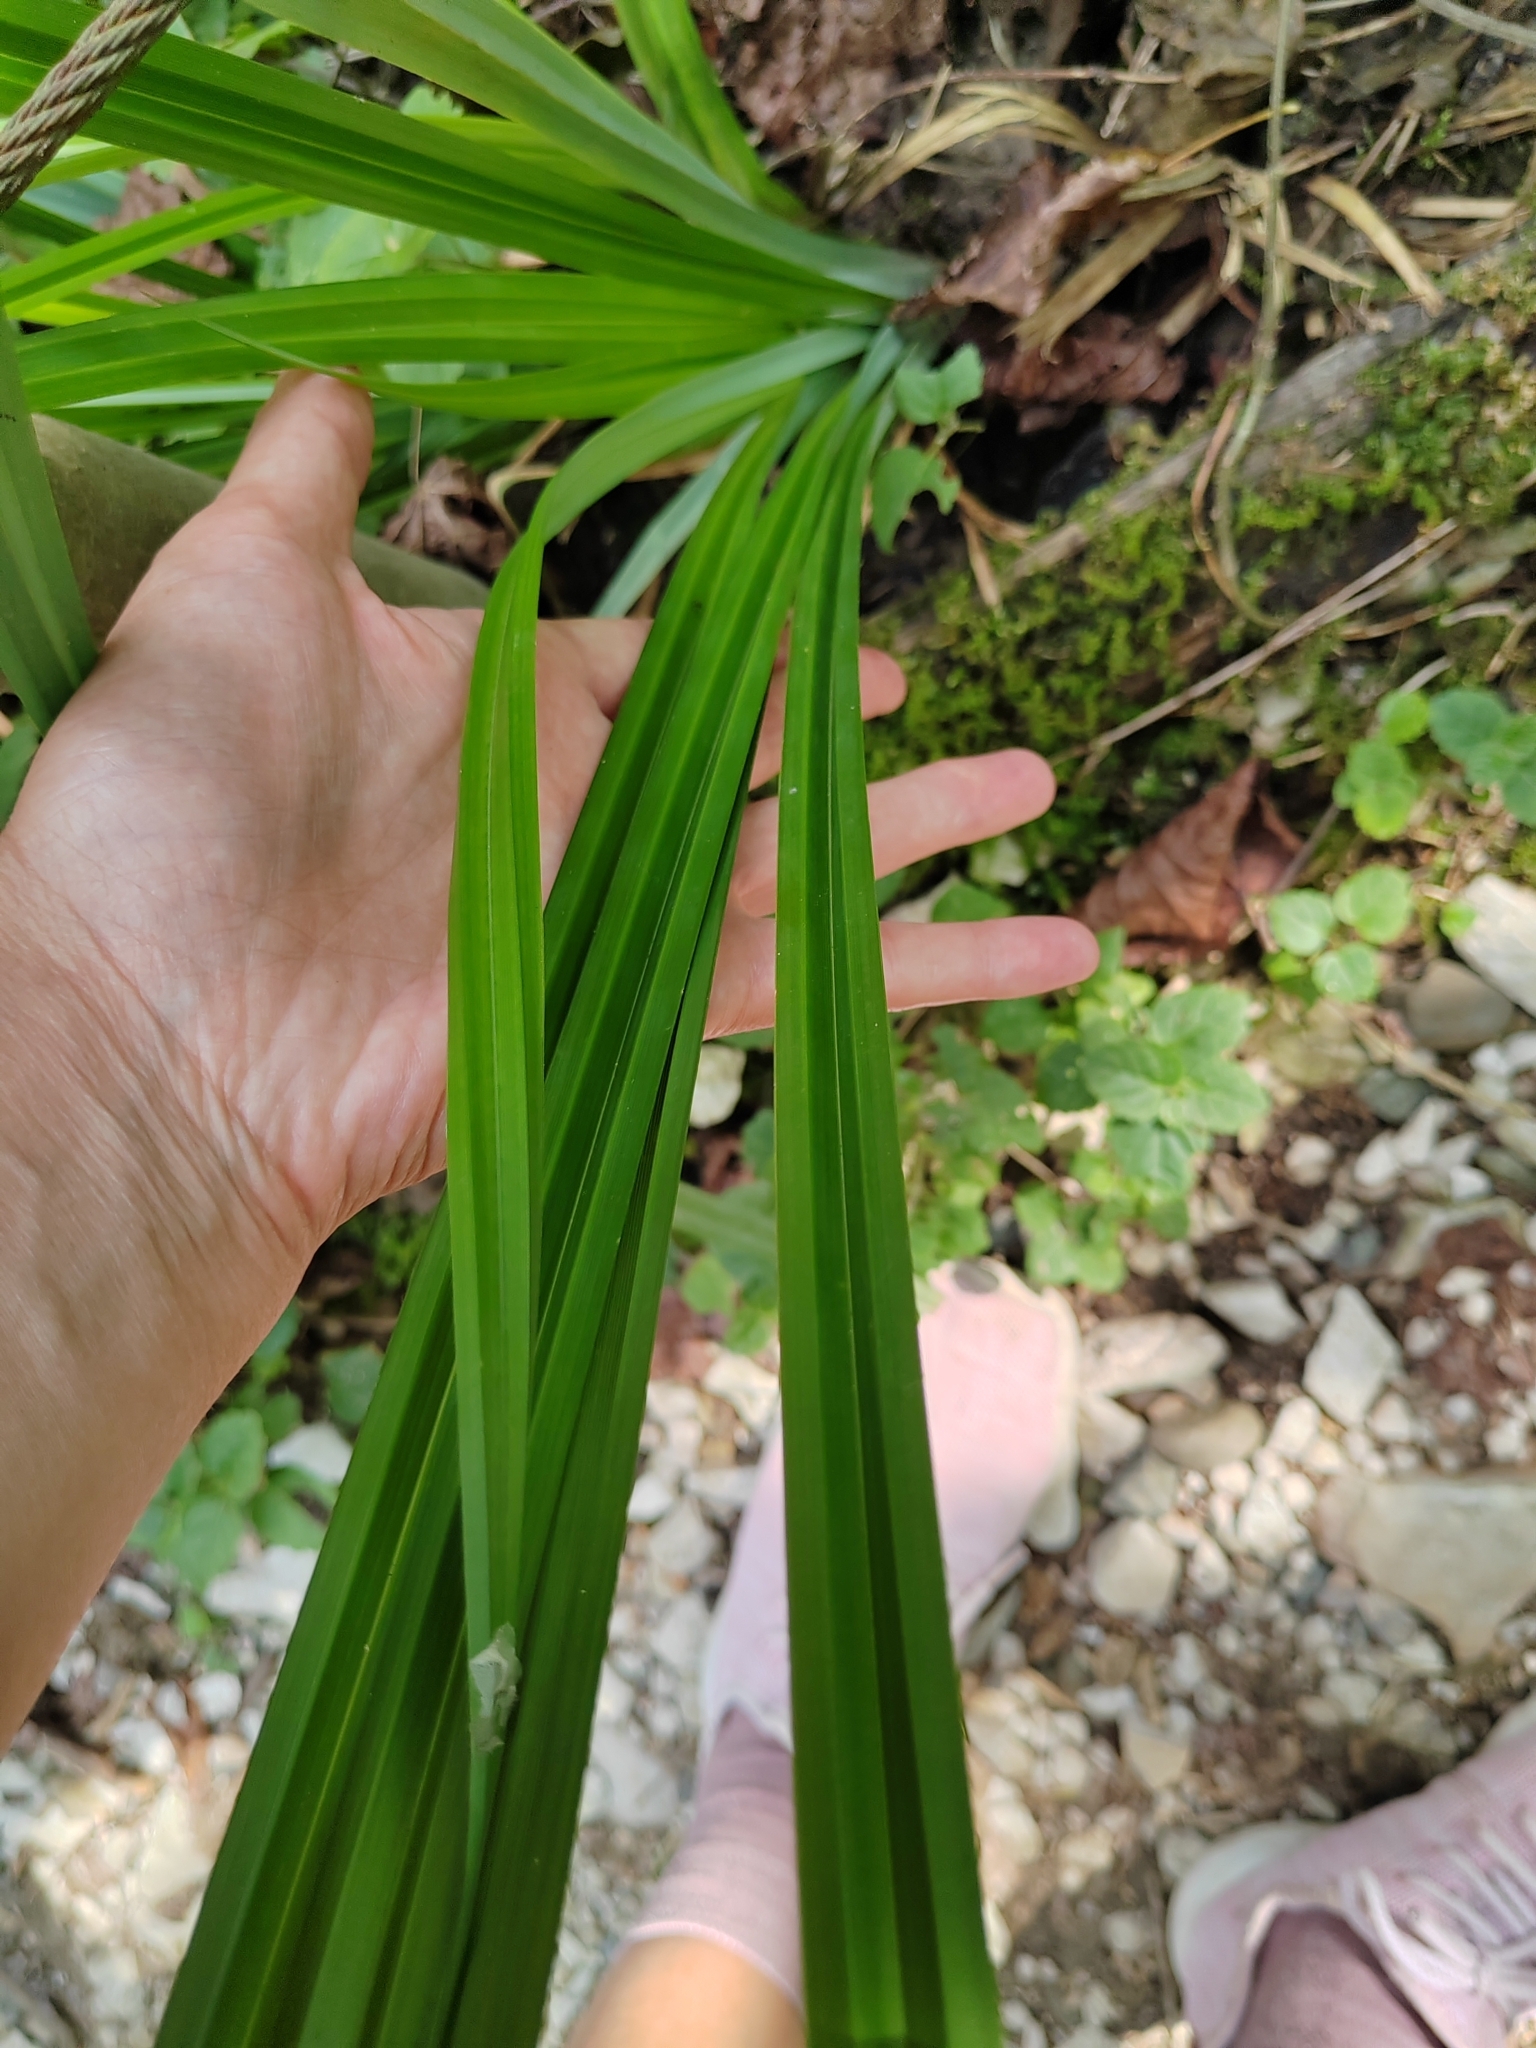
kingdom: Plantae
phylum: Tracheophyta
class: Liliopsida
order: Poales
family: Cyperaceae
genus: Carex
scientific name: Carex pendula
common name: Pendulous sedge
